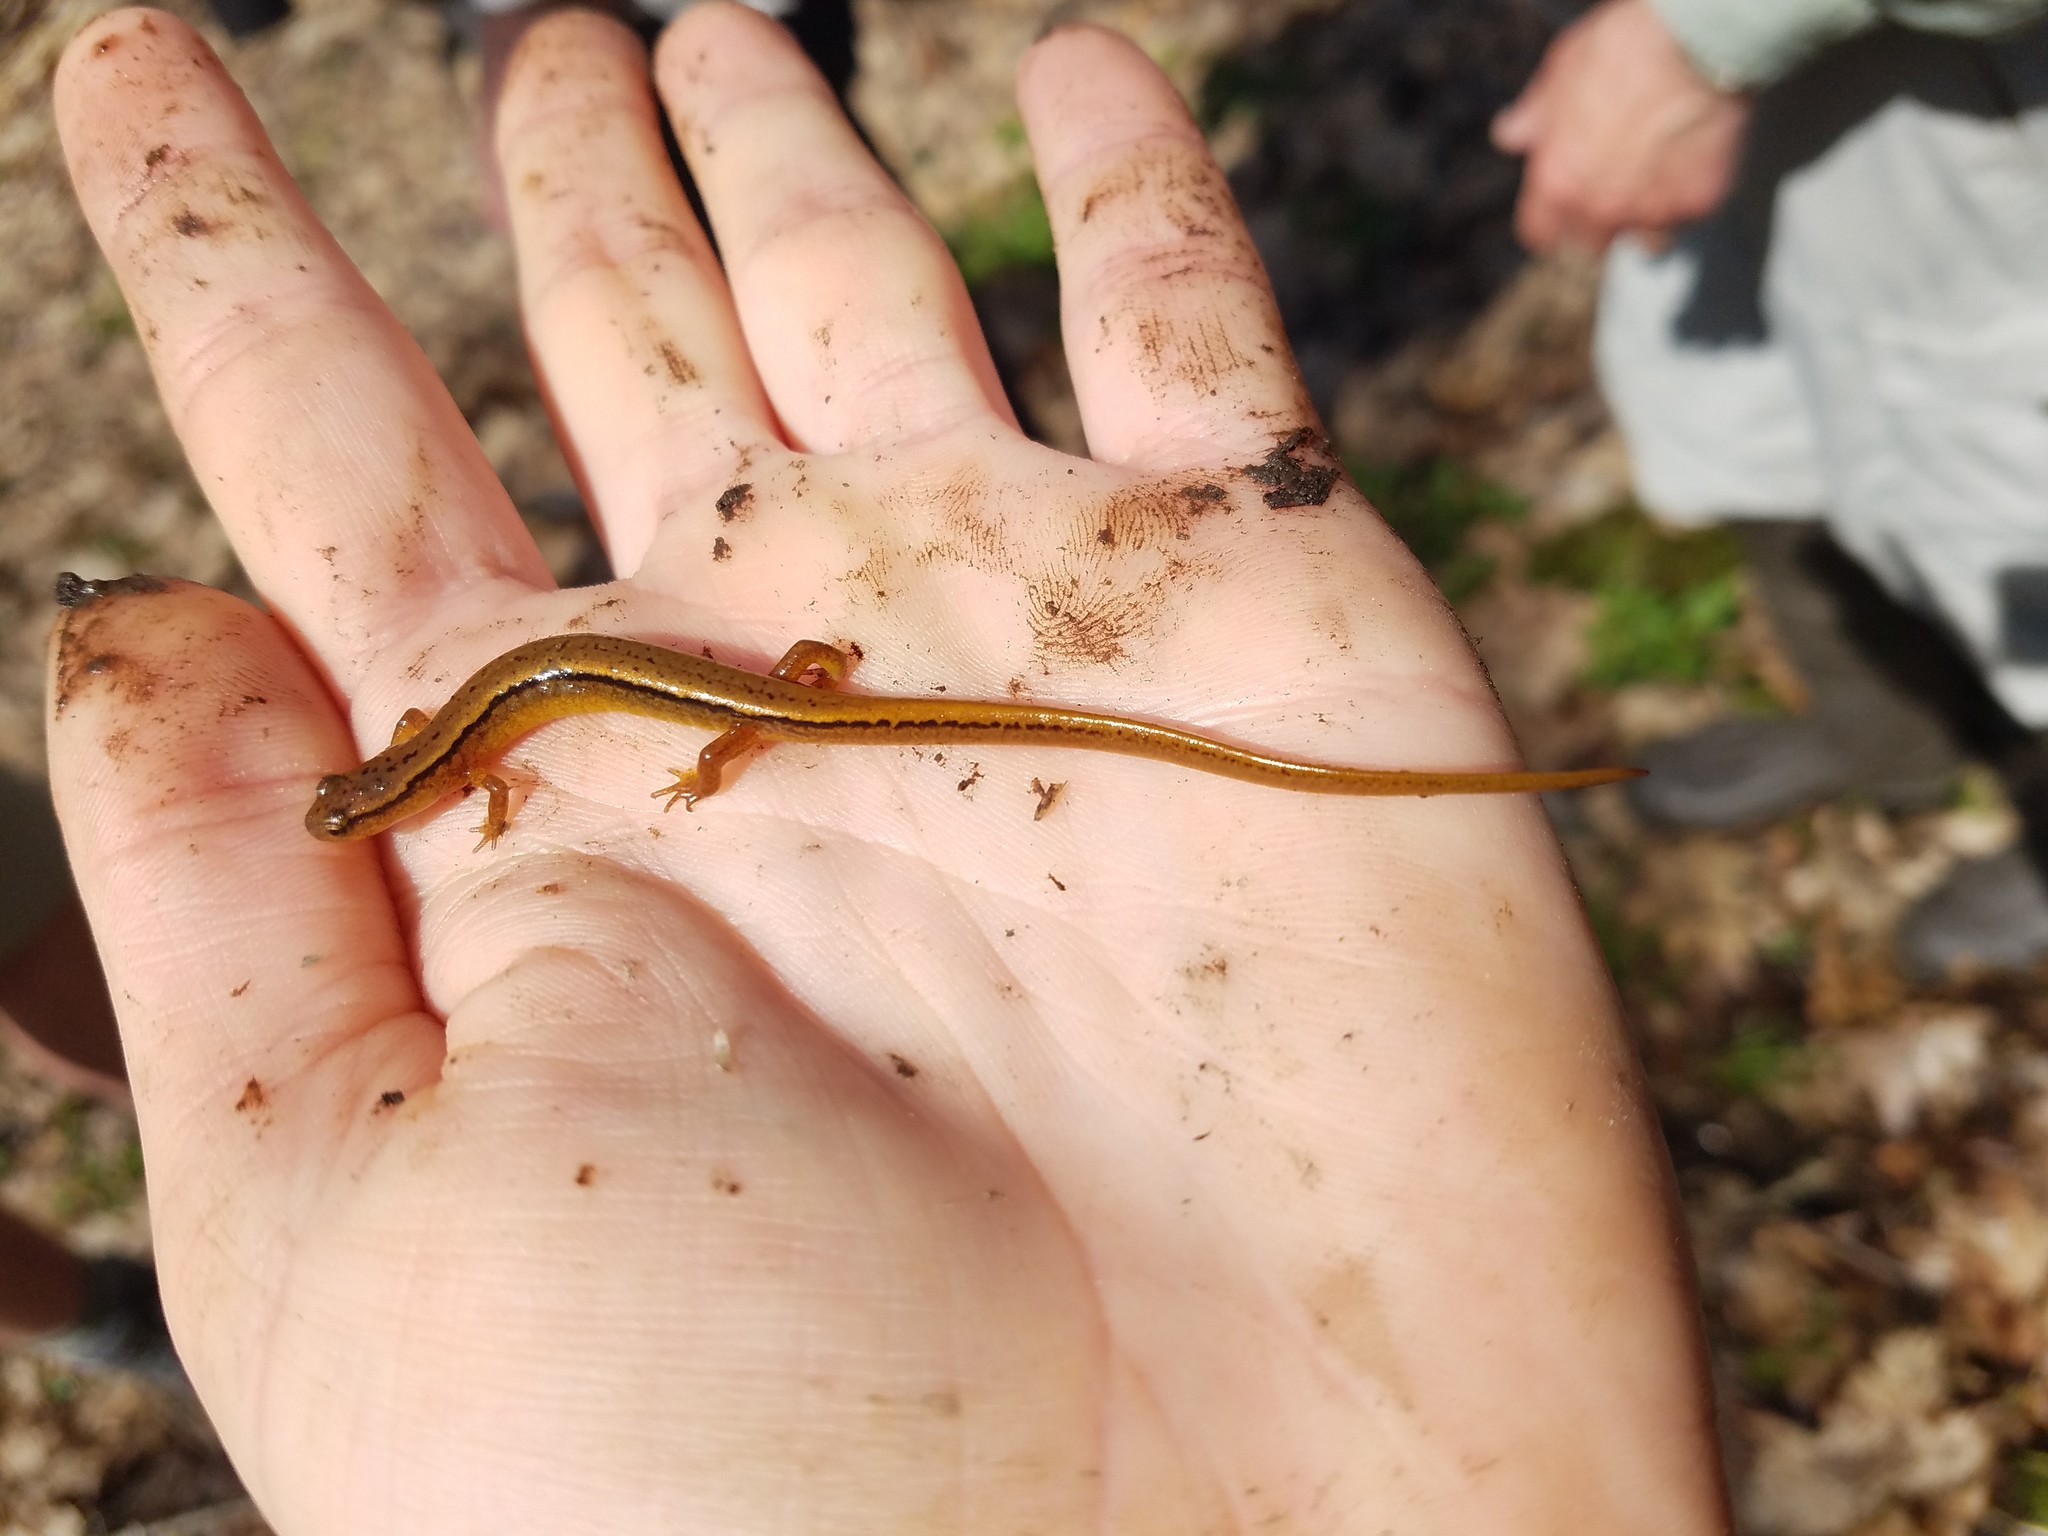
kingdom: Animalia
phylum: Chordata
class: Amphibia
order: Caudata
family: Plethodontidae
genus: Eurycea
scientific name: Eurycea bislineata
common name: Northern two-lined salamander
